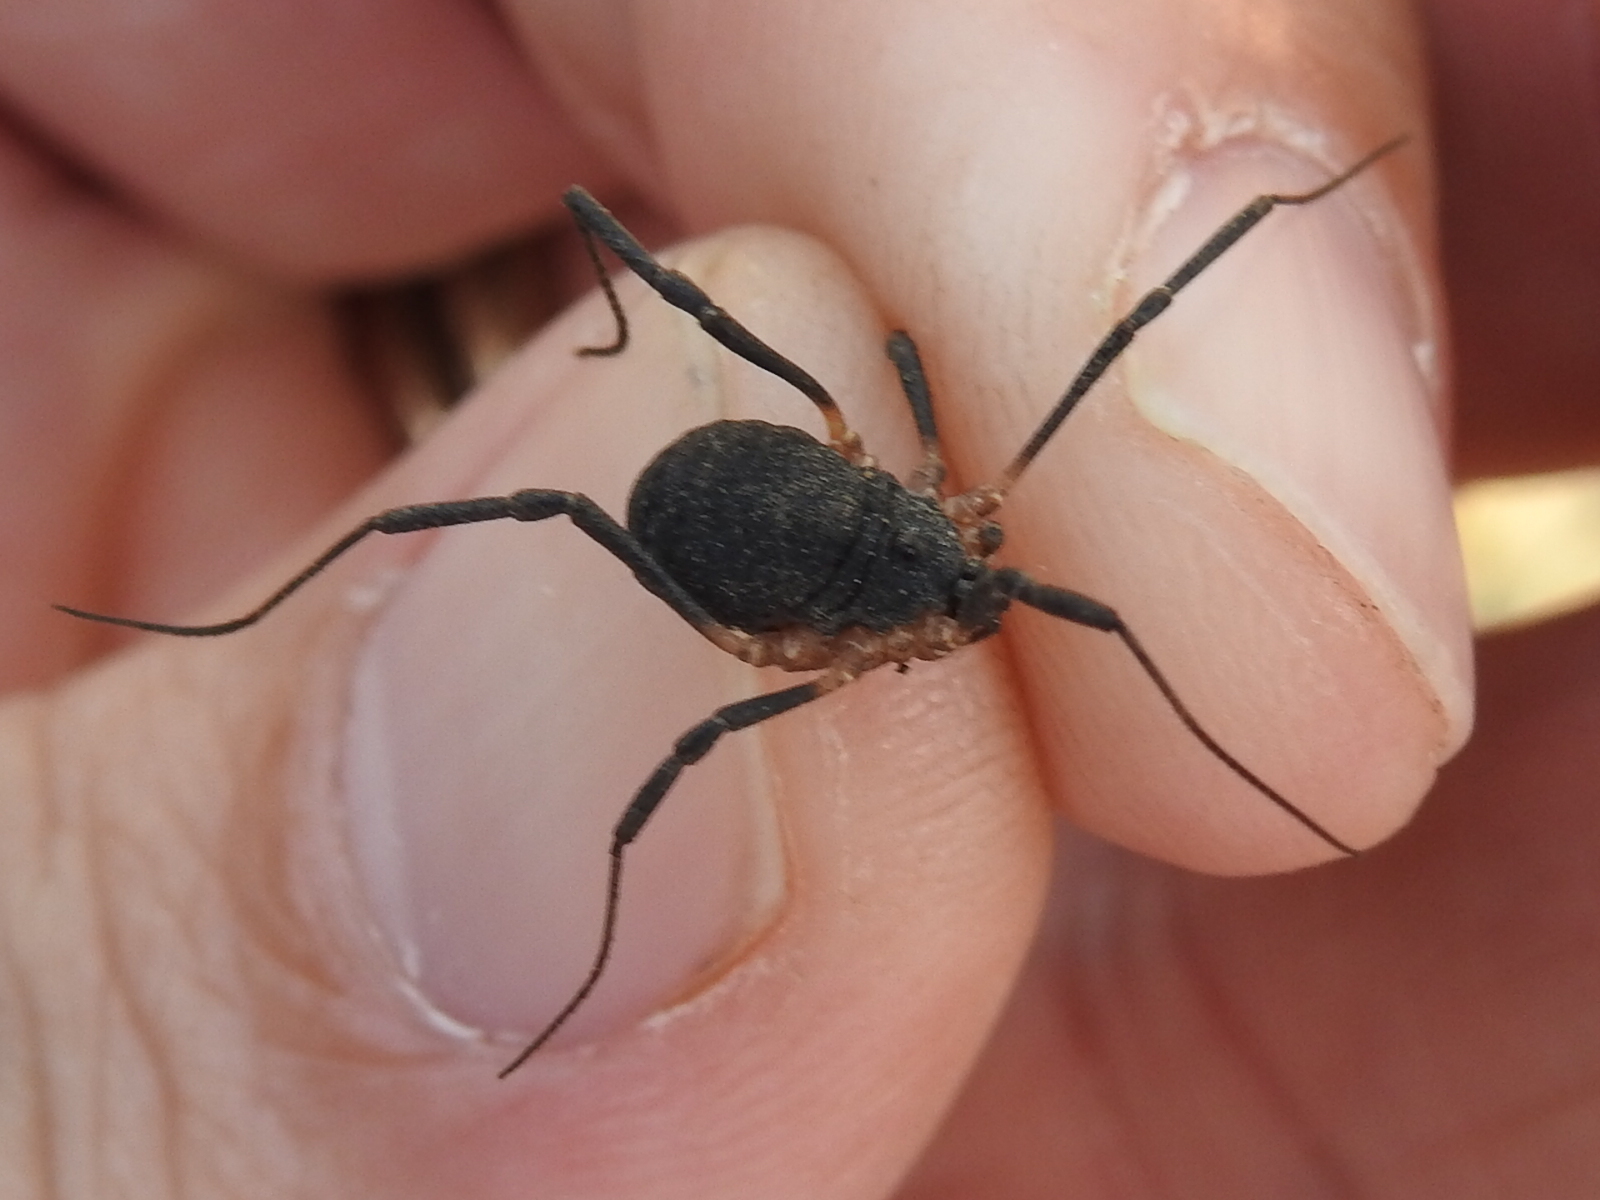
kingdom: Animalia
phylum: Arthropoda
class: Arachnida
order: Opiliones
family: Sclerosomatidae
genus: Eumesosoma
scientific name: Eumesosoma roeweri
